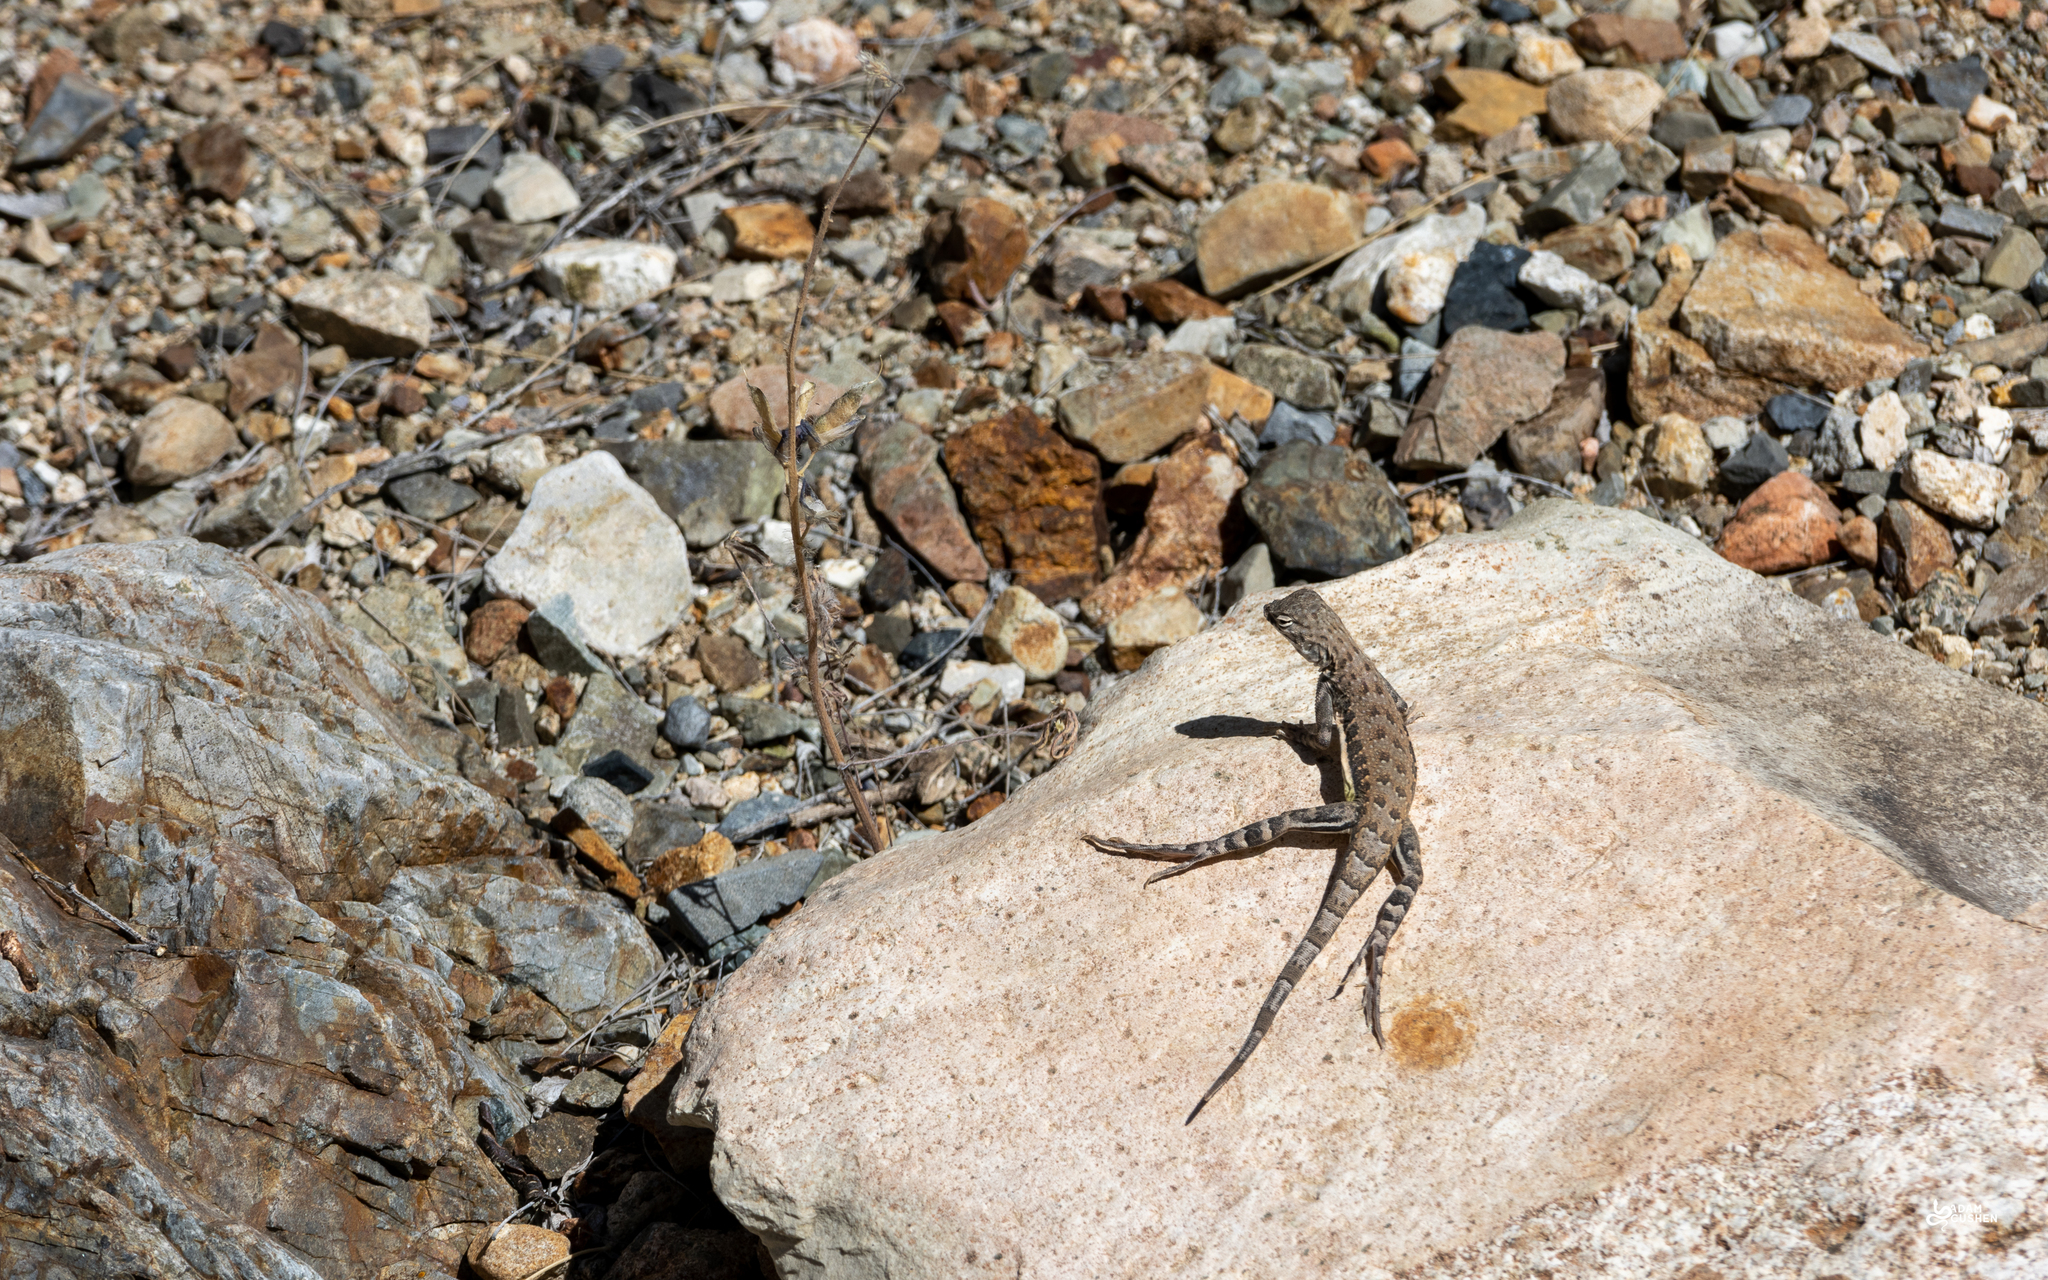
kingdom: Animalia
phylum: Chordata
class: Squamata
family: Phrynosomatidae
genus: Callisaurus
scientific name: Callisaurus draconoides
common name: Zebra-tailed lizard
